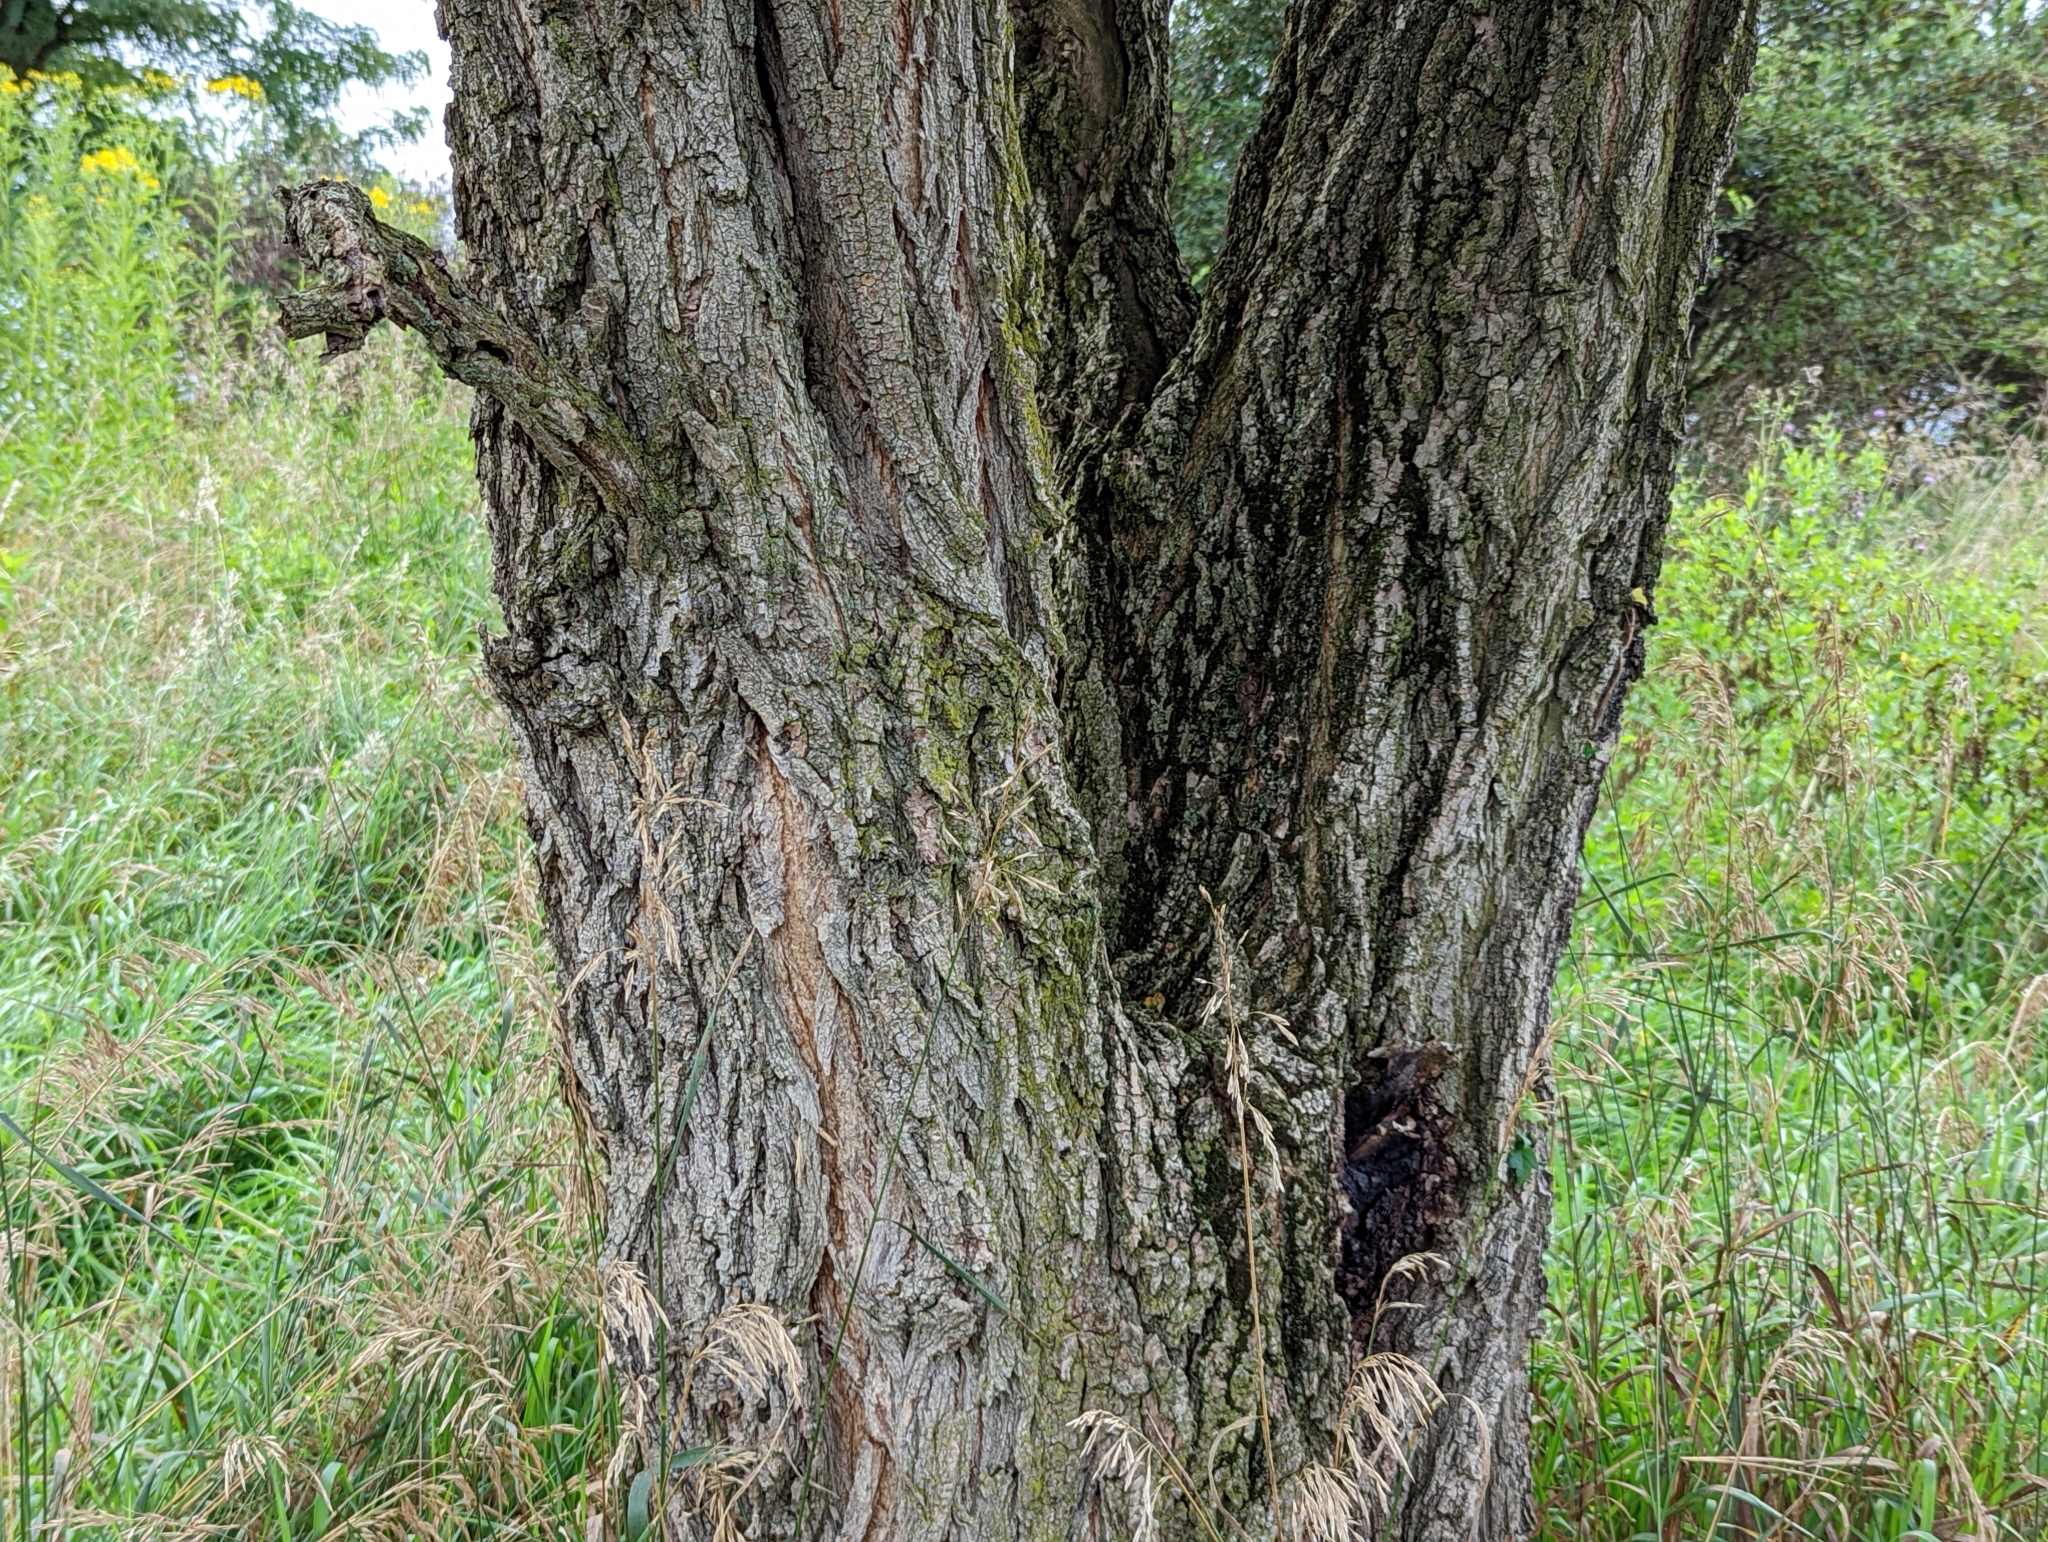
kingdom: Plantae
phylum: Tracheophyta
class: Magnoliopsida
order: Fabales
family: Fabaceae
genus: Robinia
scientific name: Robinia pseudoacacia
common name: Black locust
